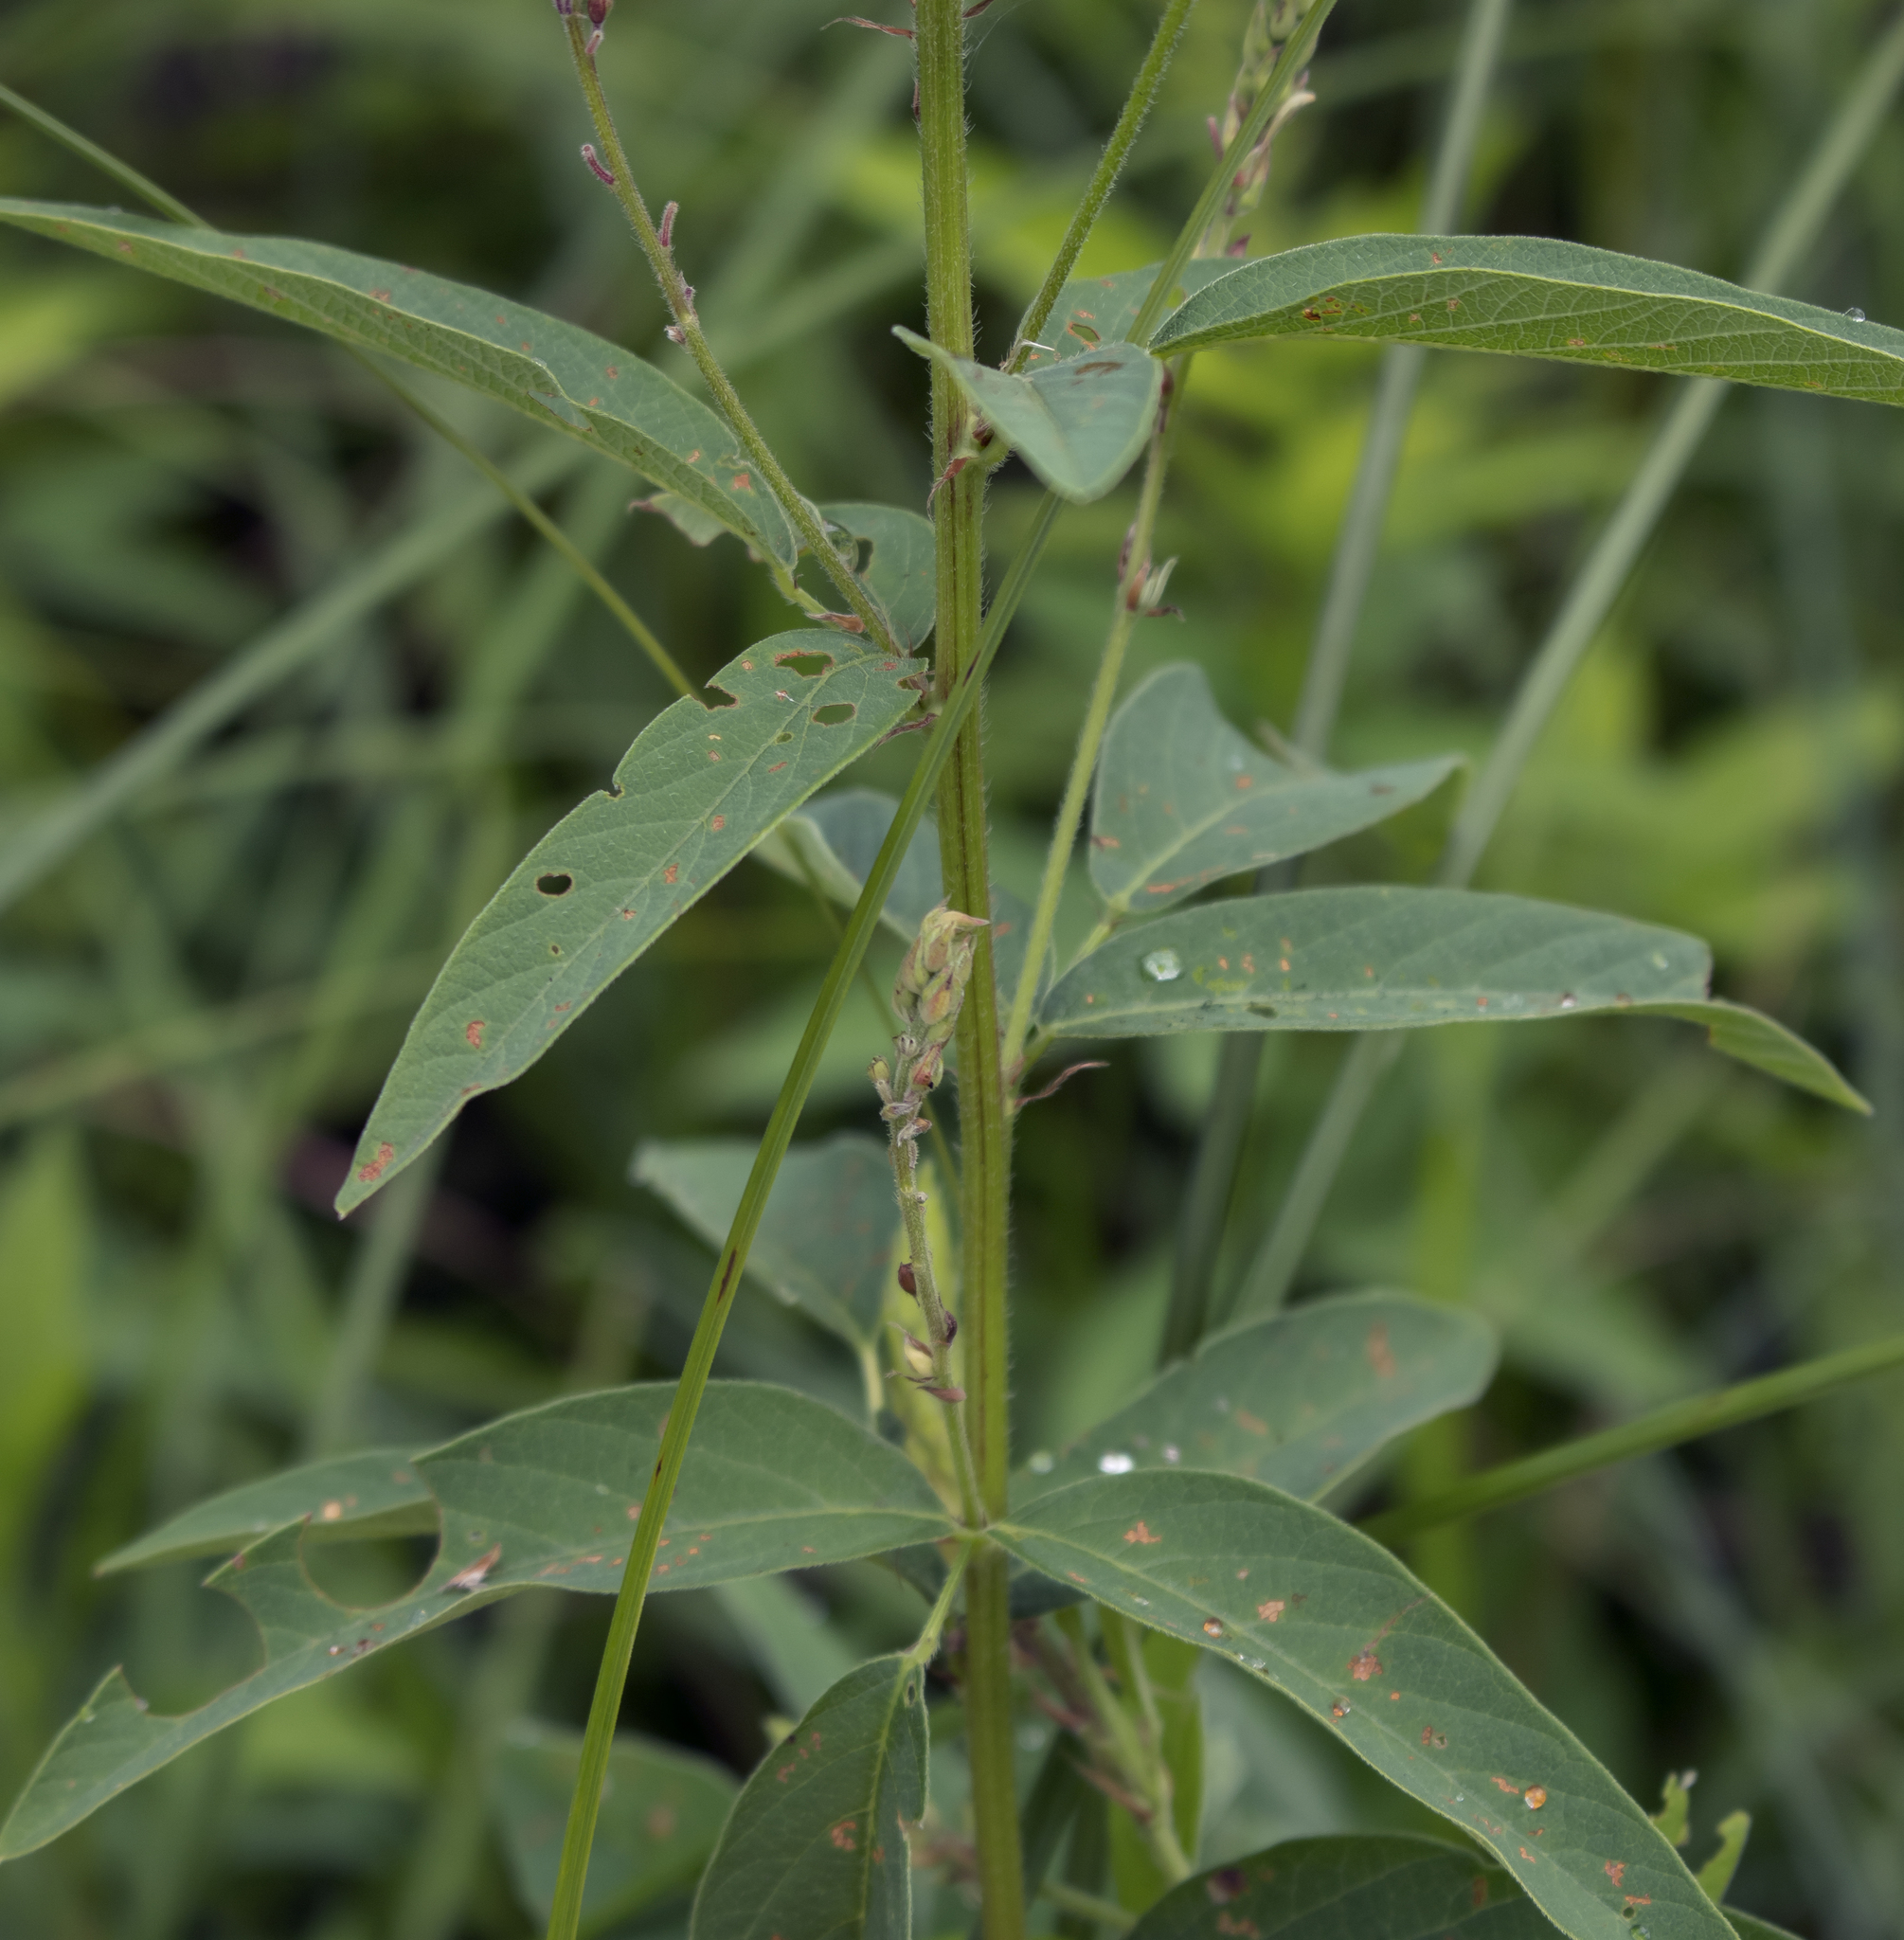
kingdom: Plantae
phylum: Tracheophyta
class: Magnoliopsida
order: Fabales
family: Fabaceae
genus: Desmodium
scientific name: Desmodium canadense
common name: Canada tick-trefoil
